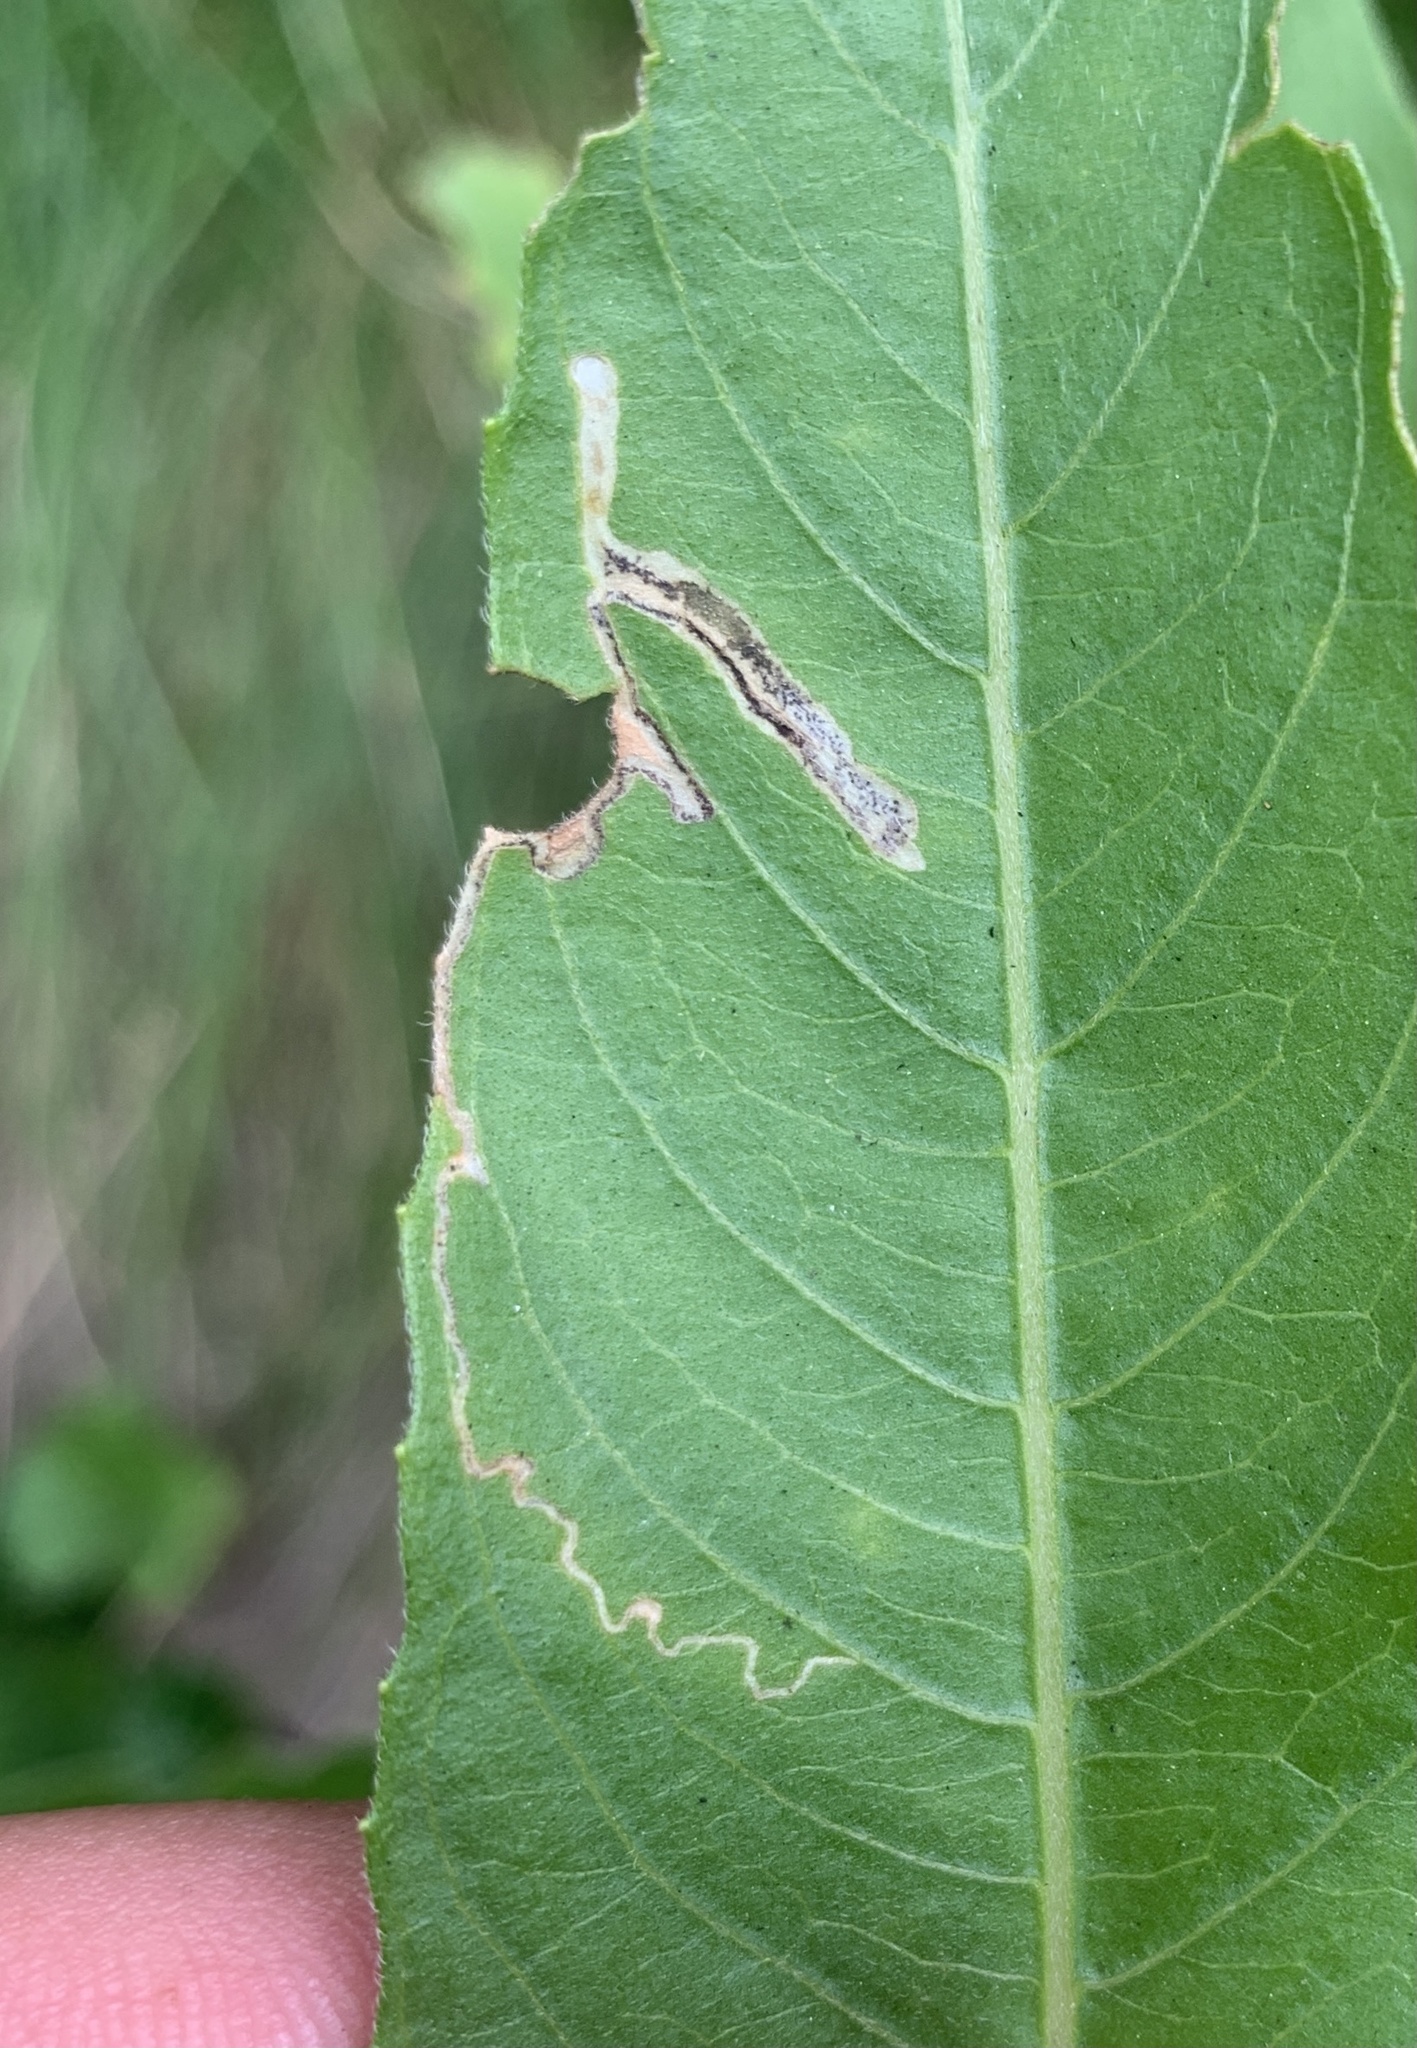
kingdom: Animalia
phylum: Arthropoda
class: Insecta
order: Lepidoptera
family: Momphidae
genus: Mompha
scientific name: Mompha argentimaculella
